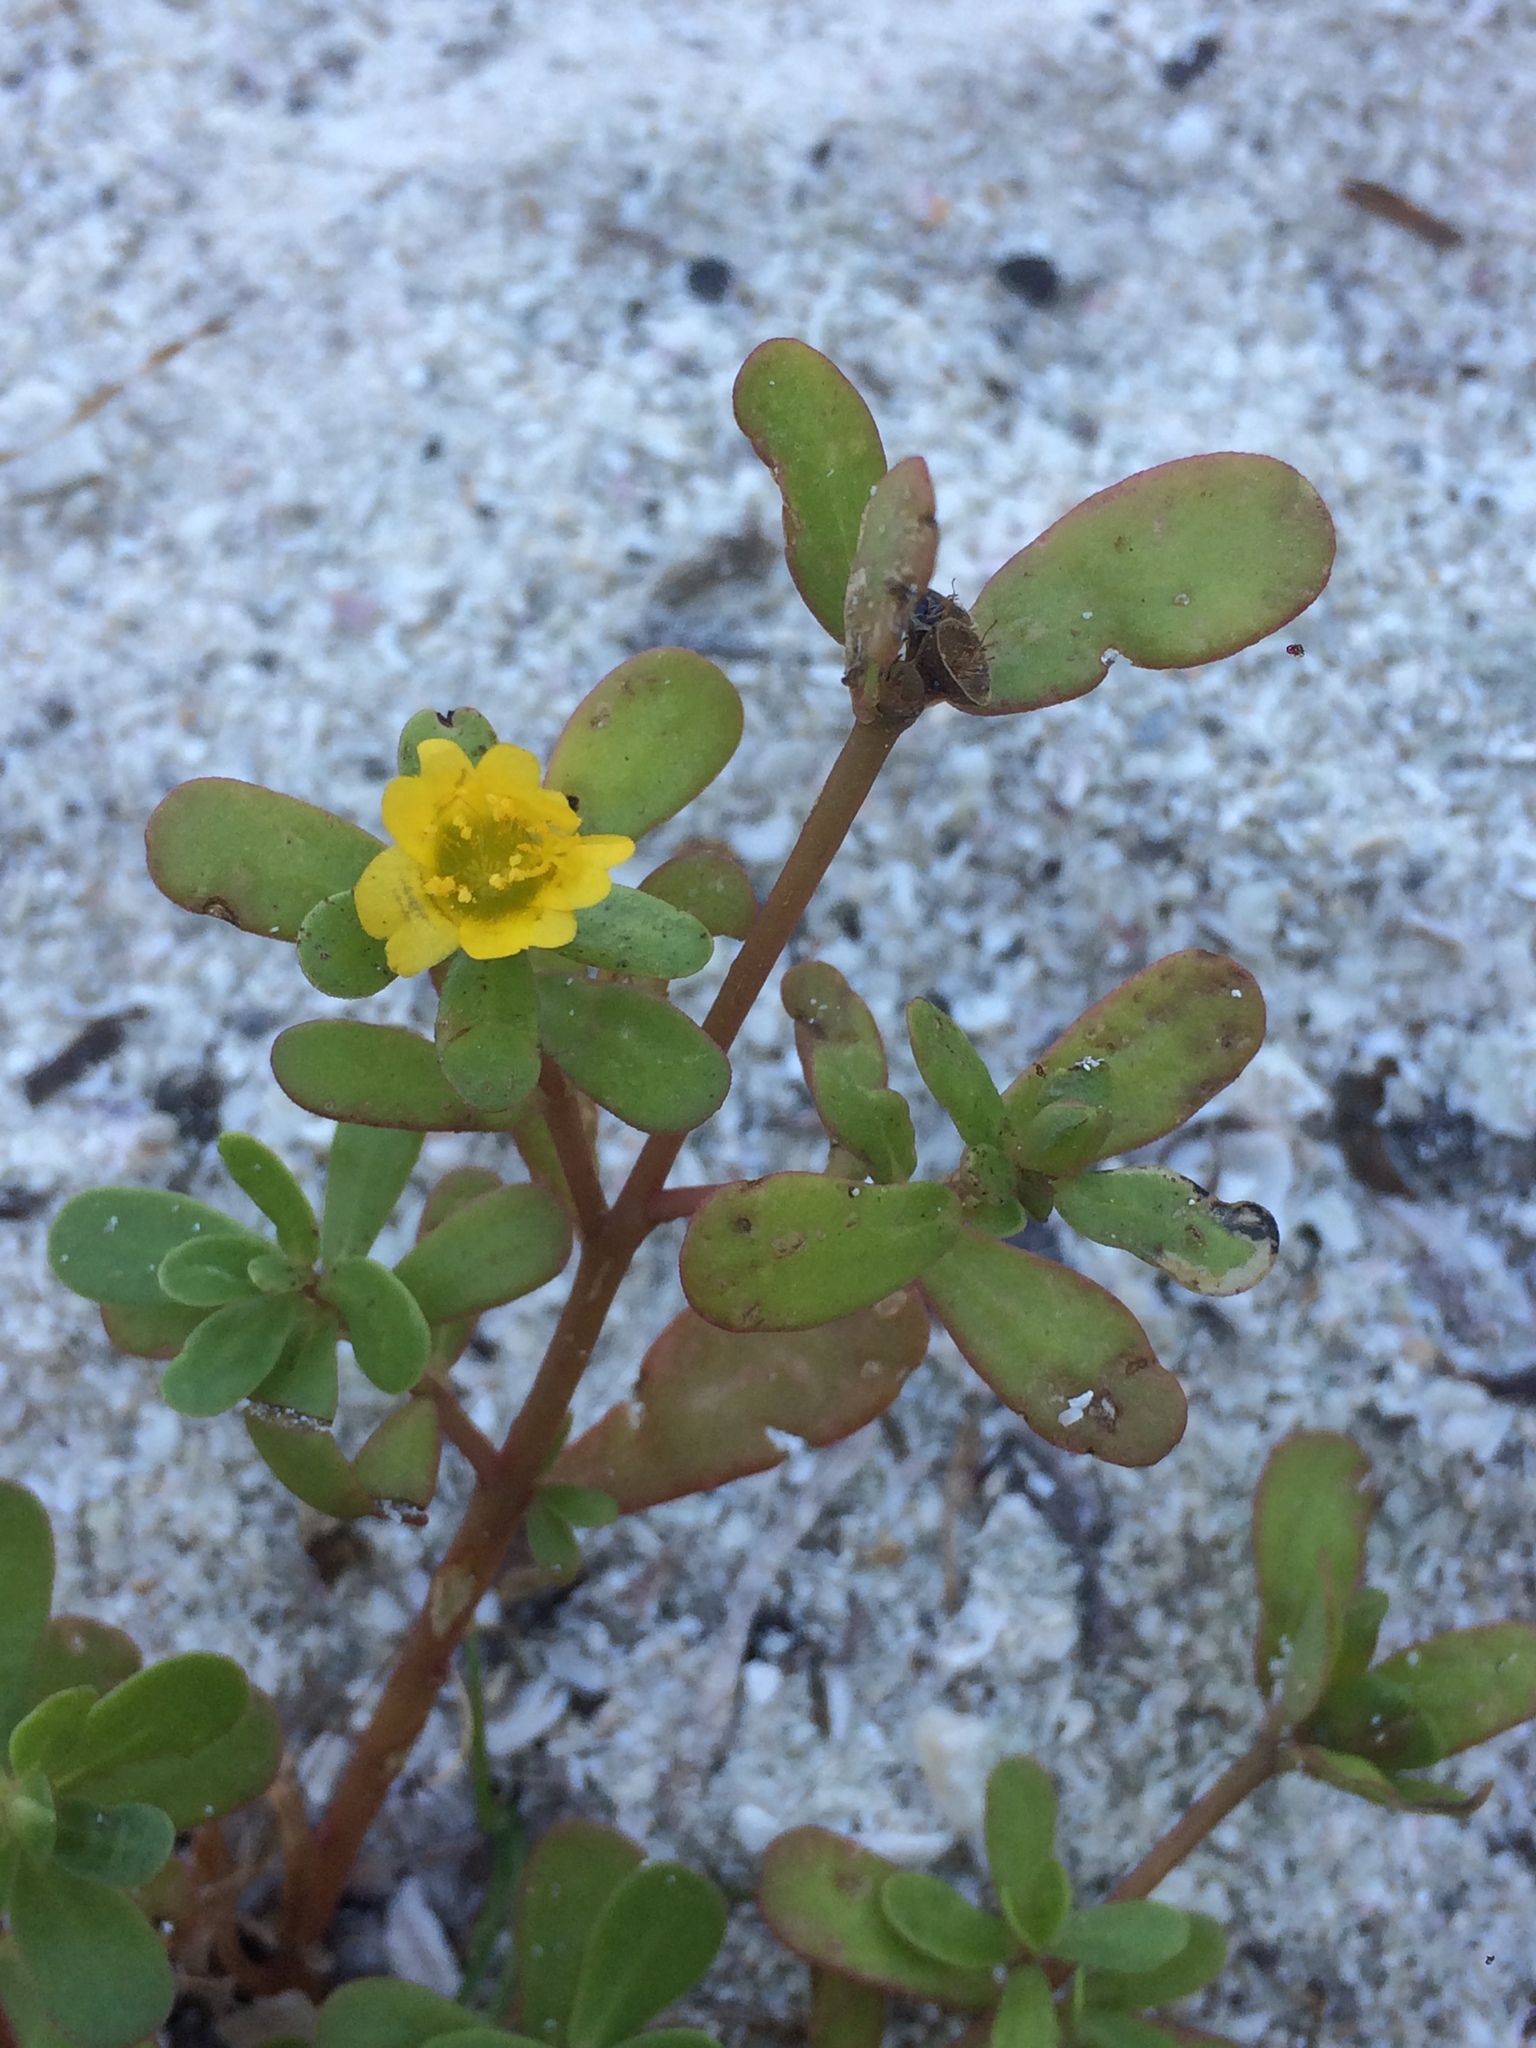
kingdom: Plantae
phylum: Tracheophyta
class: Magnoliopsida
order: Caryophyllales
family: Portulacaceae
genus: Portulaca
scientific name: Portulaca oleracea
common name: Common purslane
